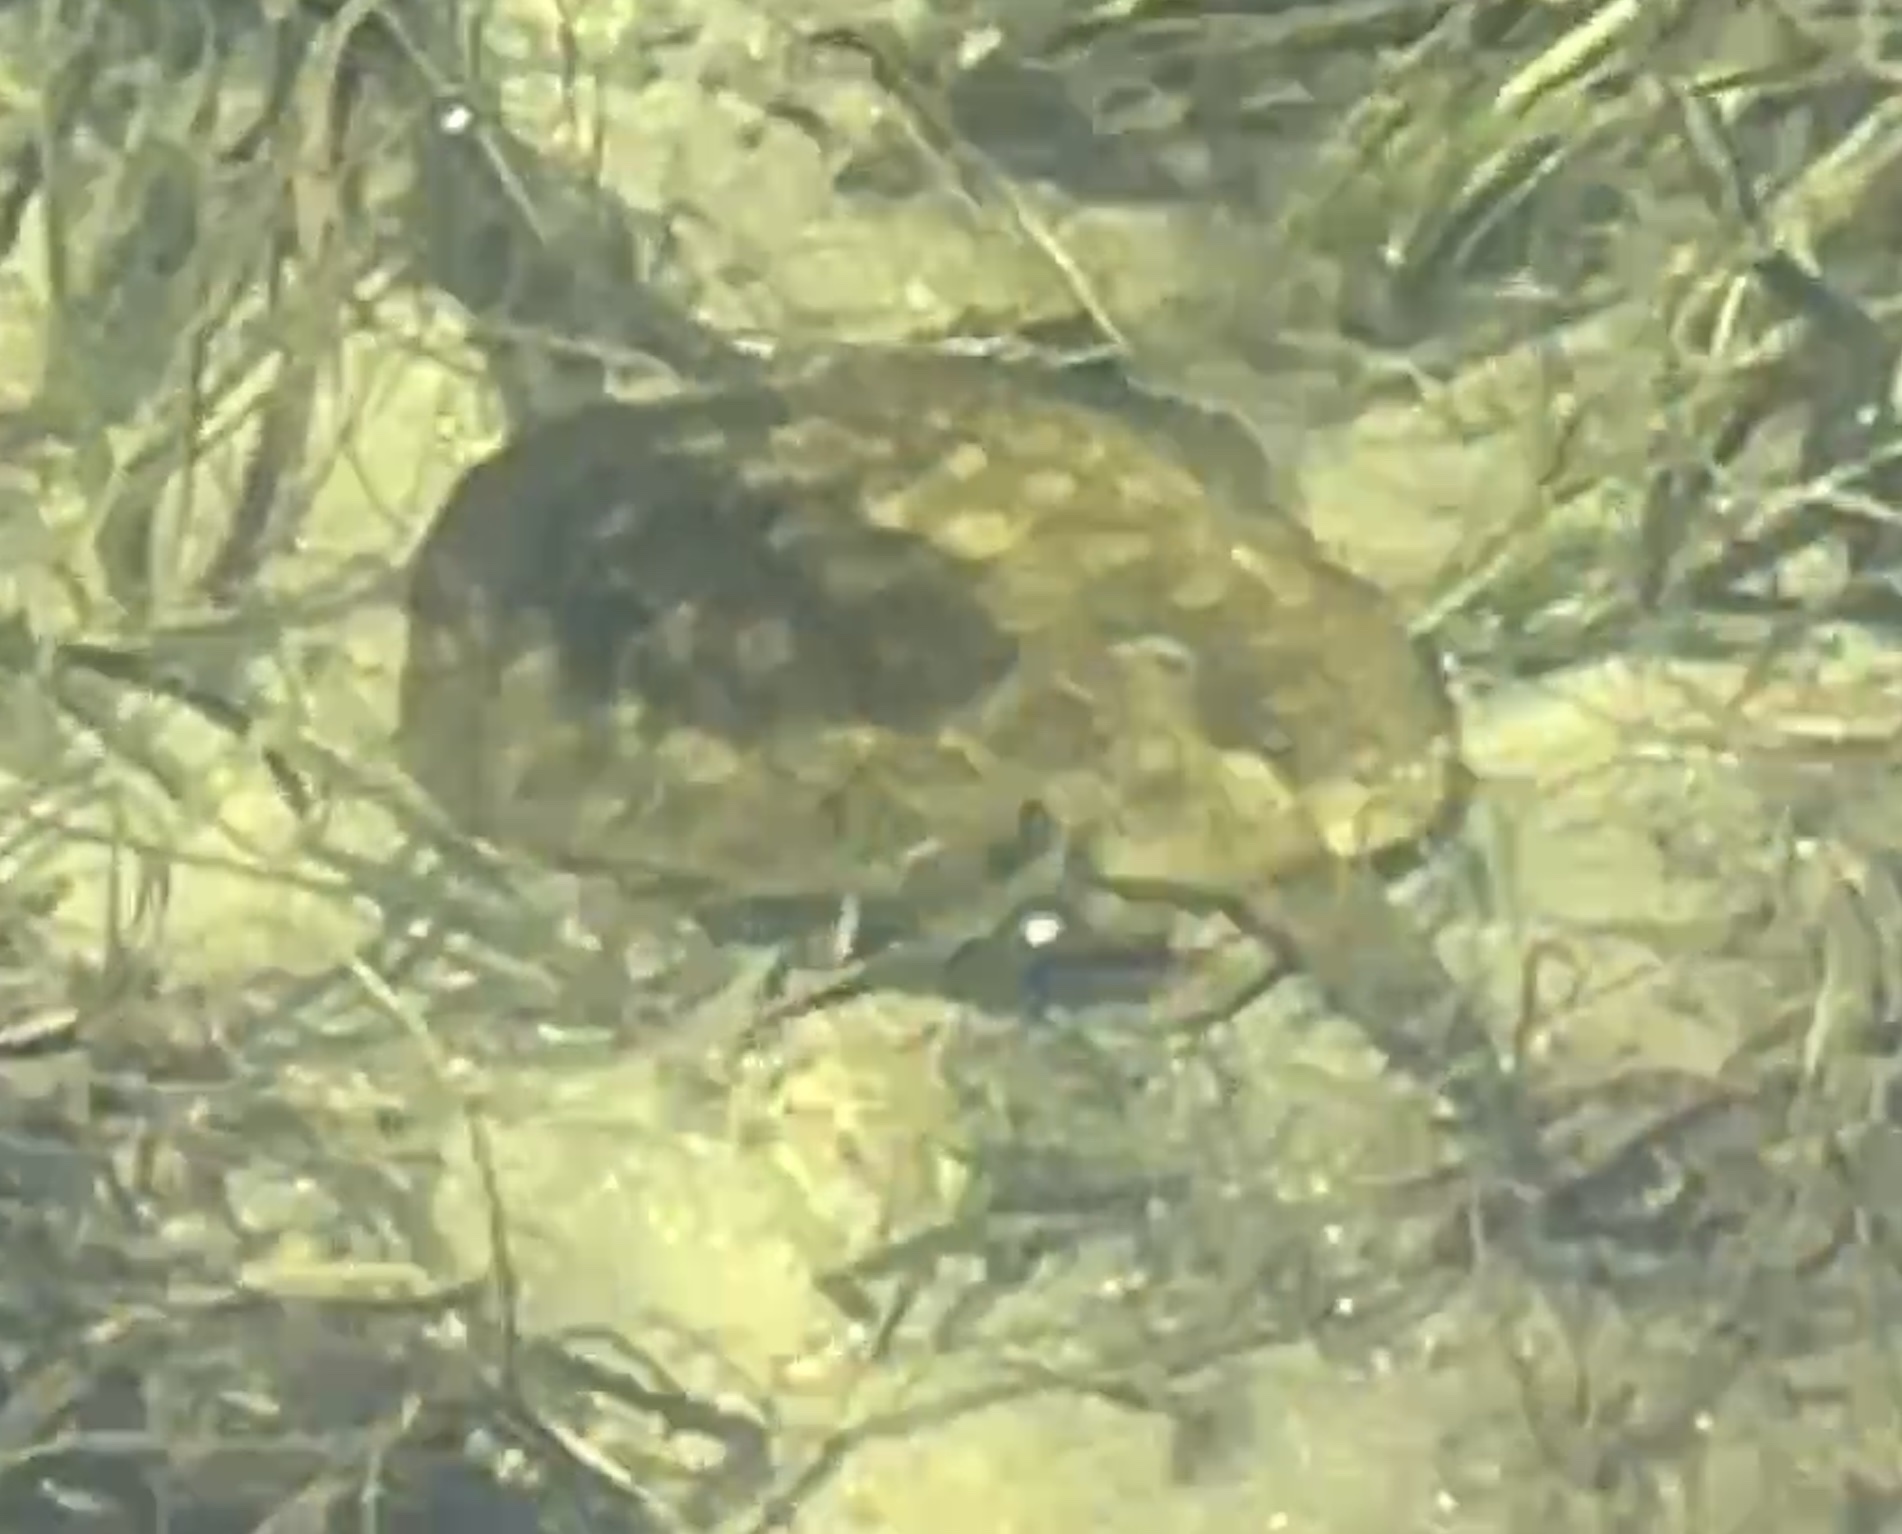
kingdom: Animalia
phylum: Chordata
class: Elasmobranchii
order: Myliobatiformes
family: Urotrygonidae
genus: Urobatis
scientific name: Urobatis jamaicensis
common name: Yellow stingray
